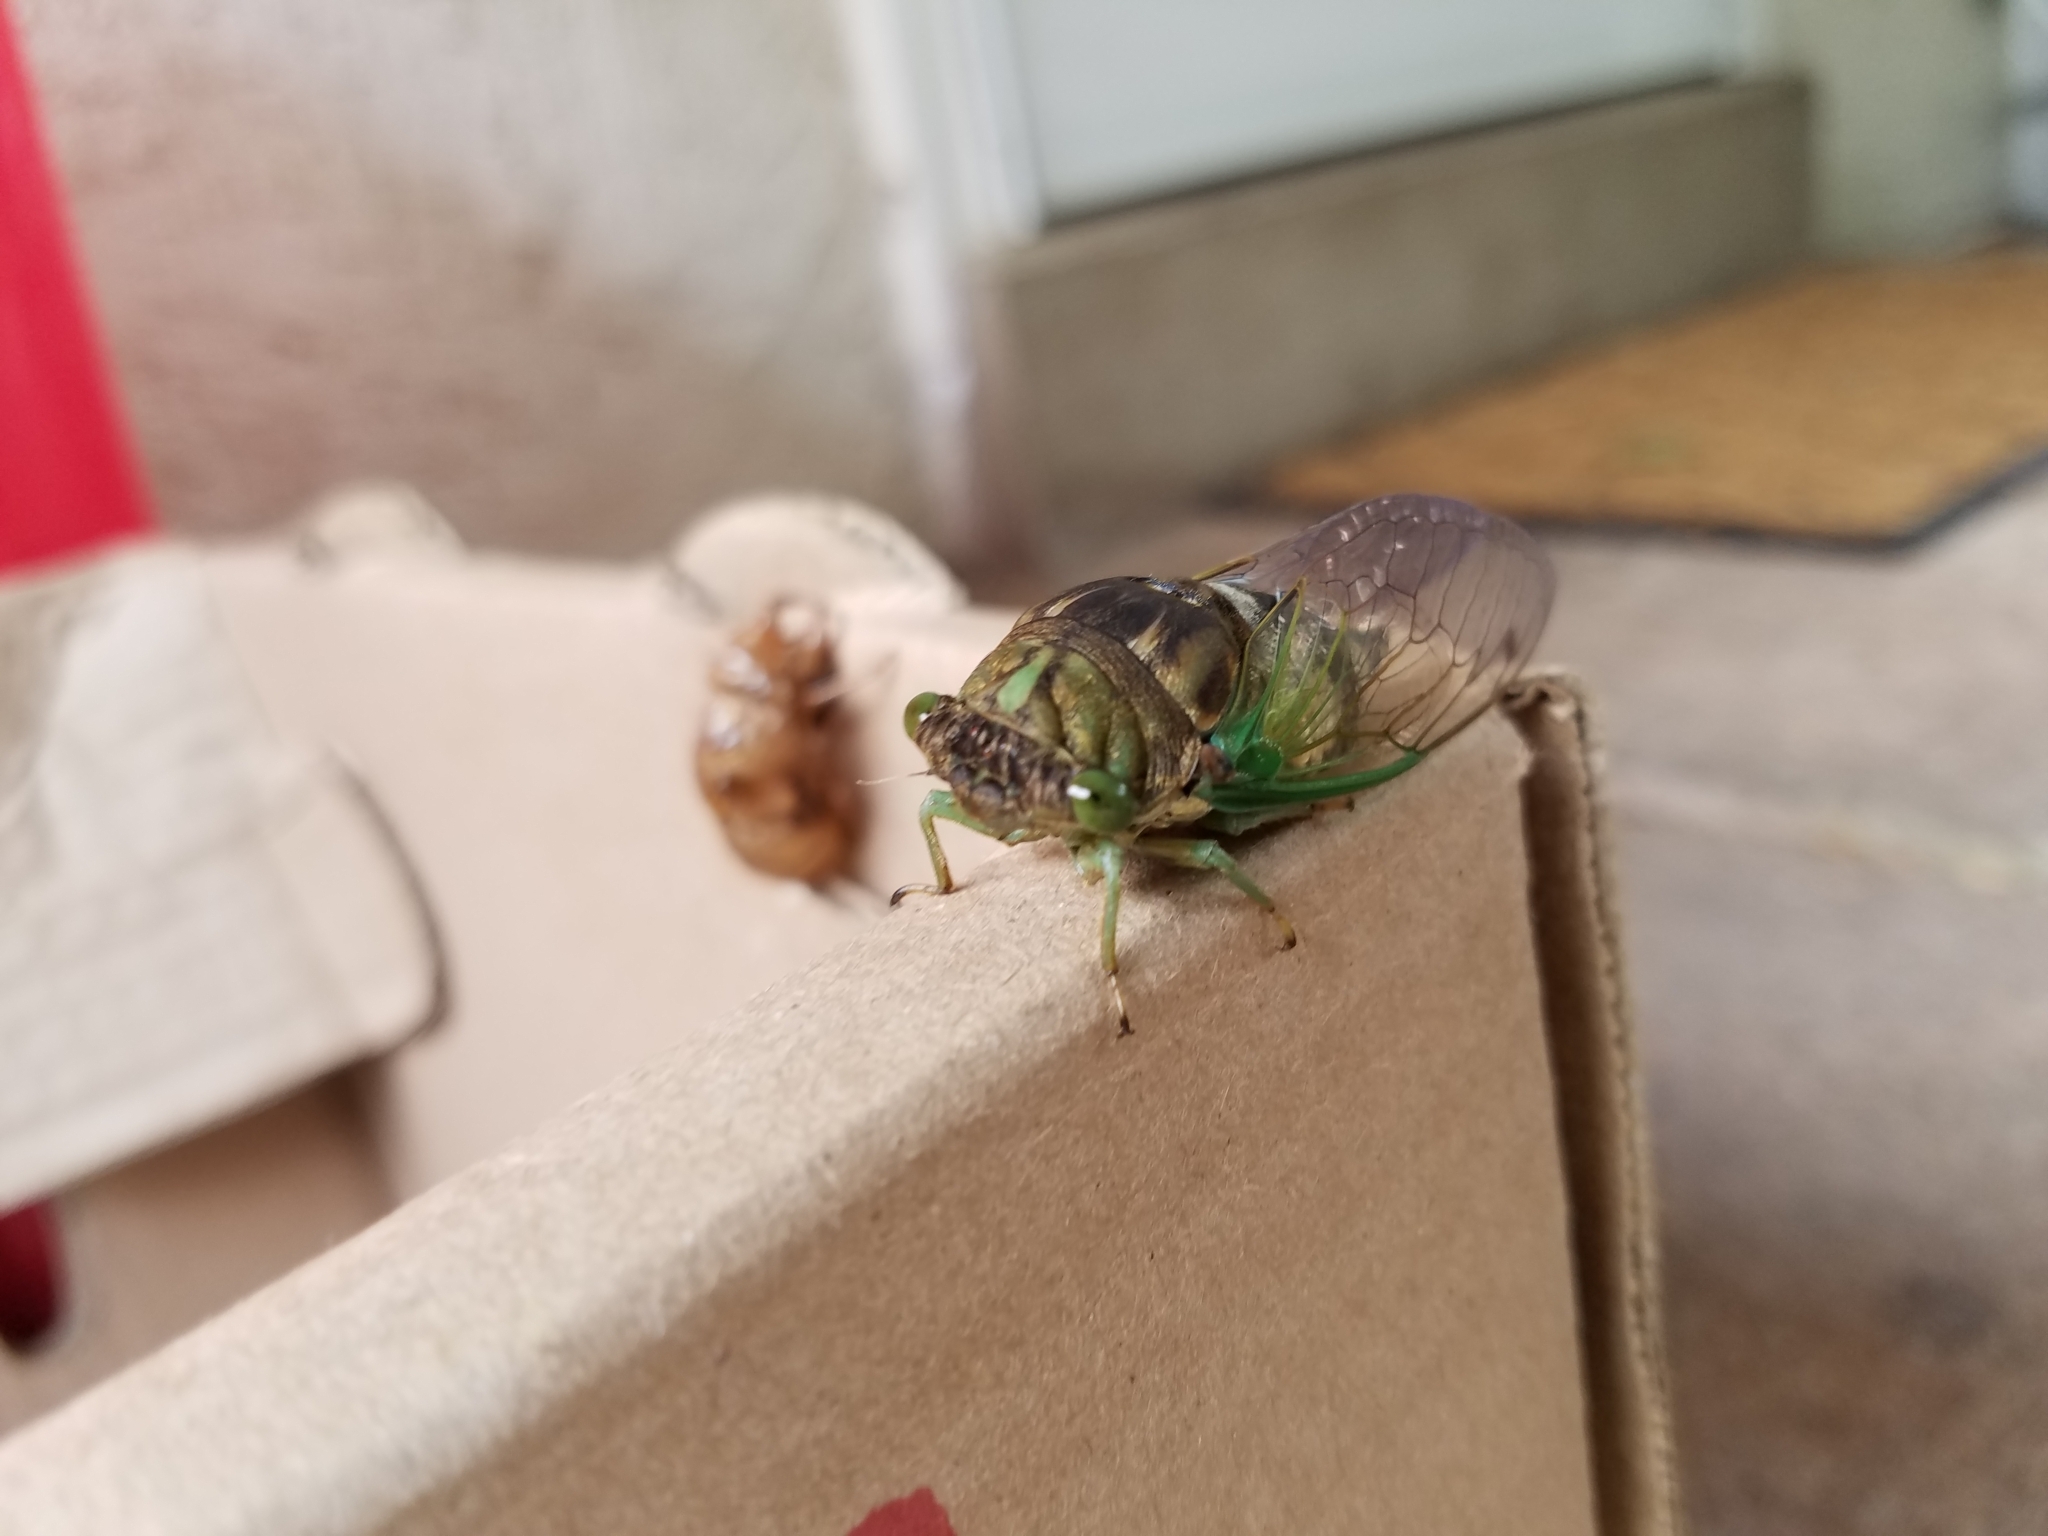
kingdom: Animalia
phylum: Arthropoda
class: Insecta
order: Hemiptera
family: Cicadidae
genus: Neotibicen
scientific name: Neotibicen tibicen
